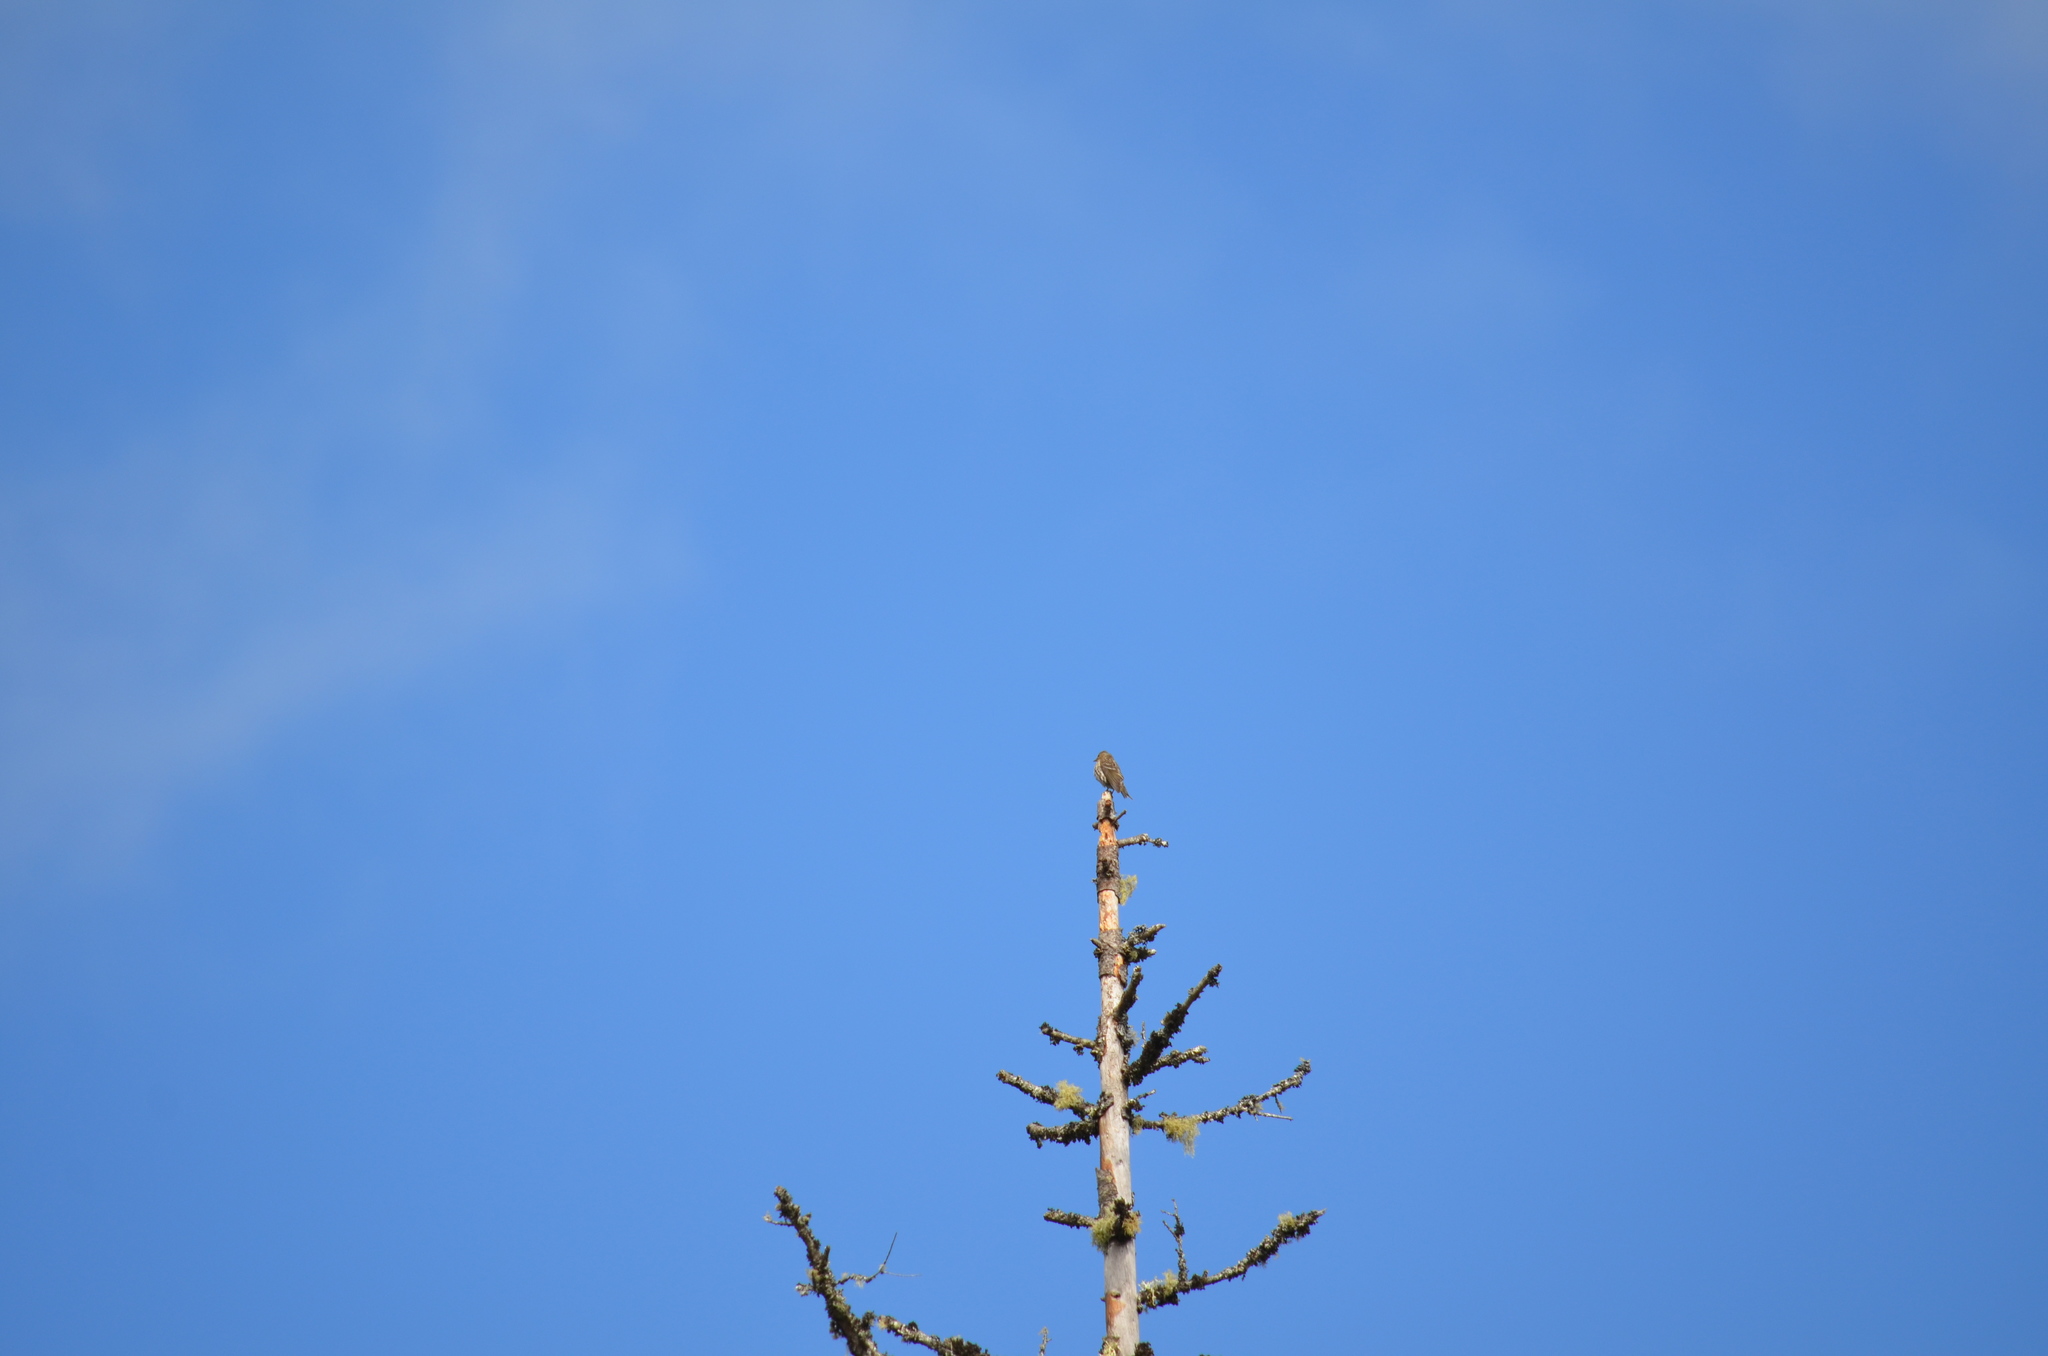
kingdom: Animalia
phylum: Chordata
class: Aves
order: Passeriformes
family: Fringillidae
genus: Haemorhous
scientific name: Haemorhous mexicanus
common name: House finch
